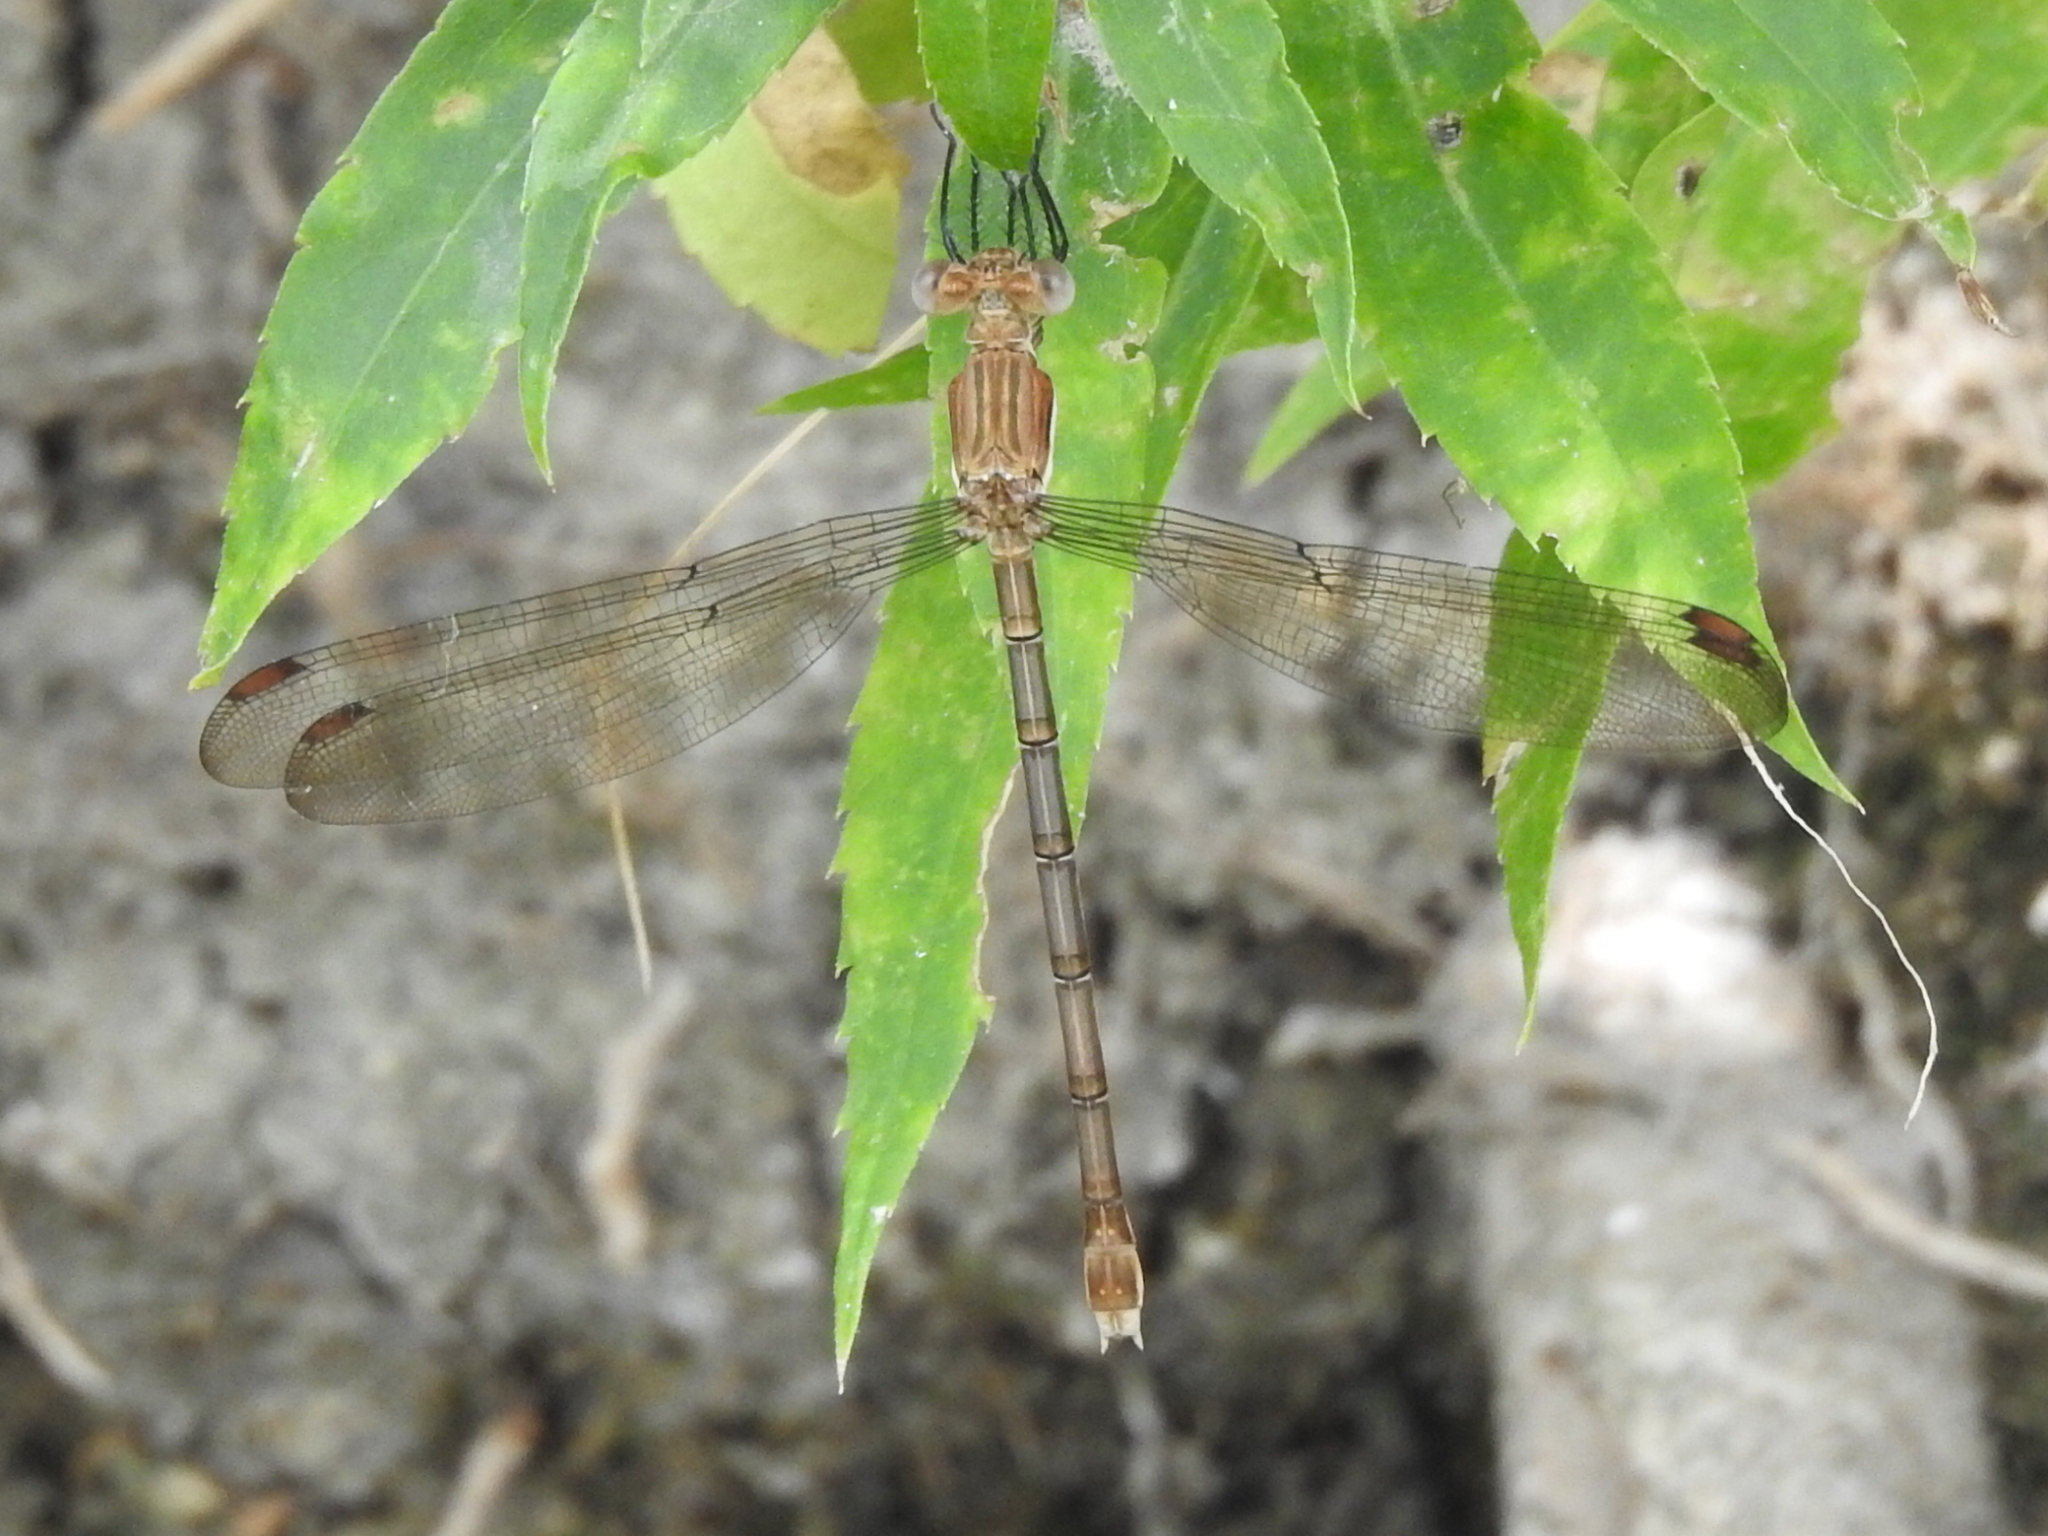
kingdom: Animalia
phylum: Arthropoda
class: Insecta
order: Odonata
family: Lestidae
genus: Archilestes
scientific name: Archilestes grandis
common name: Great spreadwing
